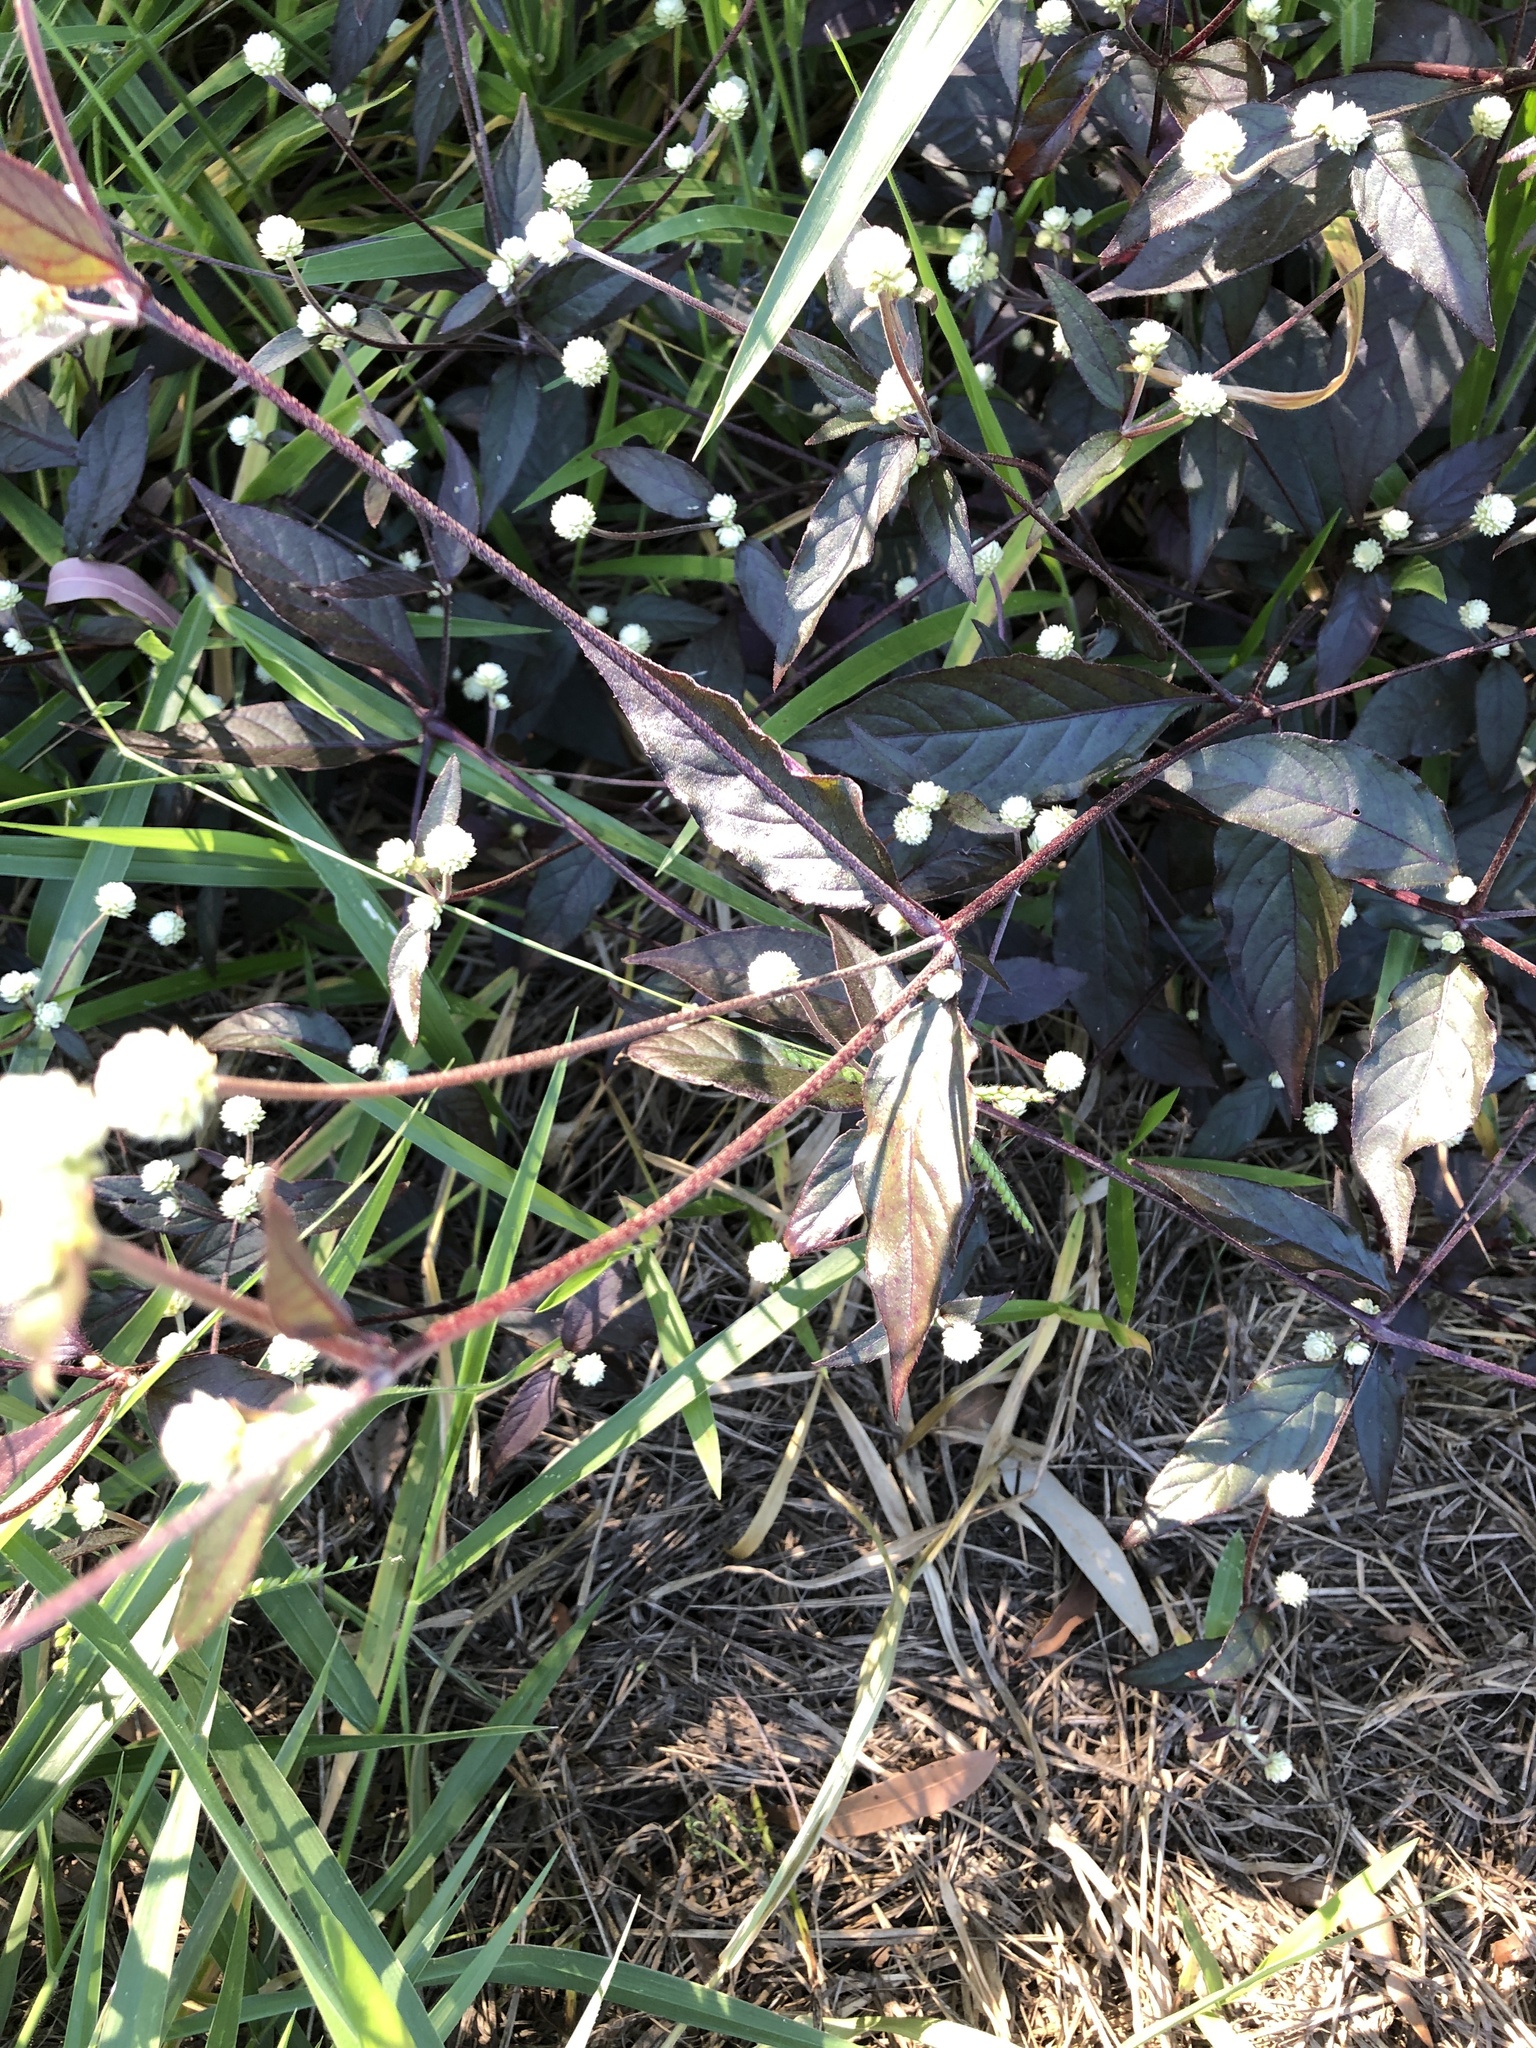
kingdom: Plantae
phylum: Tracheophyta
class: Magnoliopsida
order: Caryophyllales
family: Amaranthaceae
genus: Alternanthera
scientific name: Alternanthera brasiliana
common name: Brazilian joyweed
